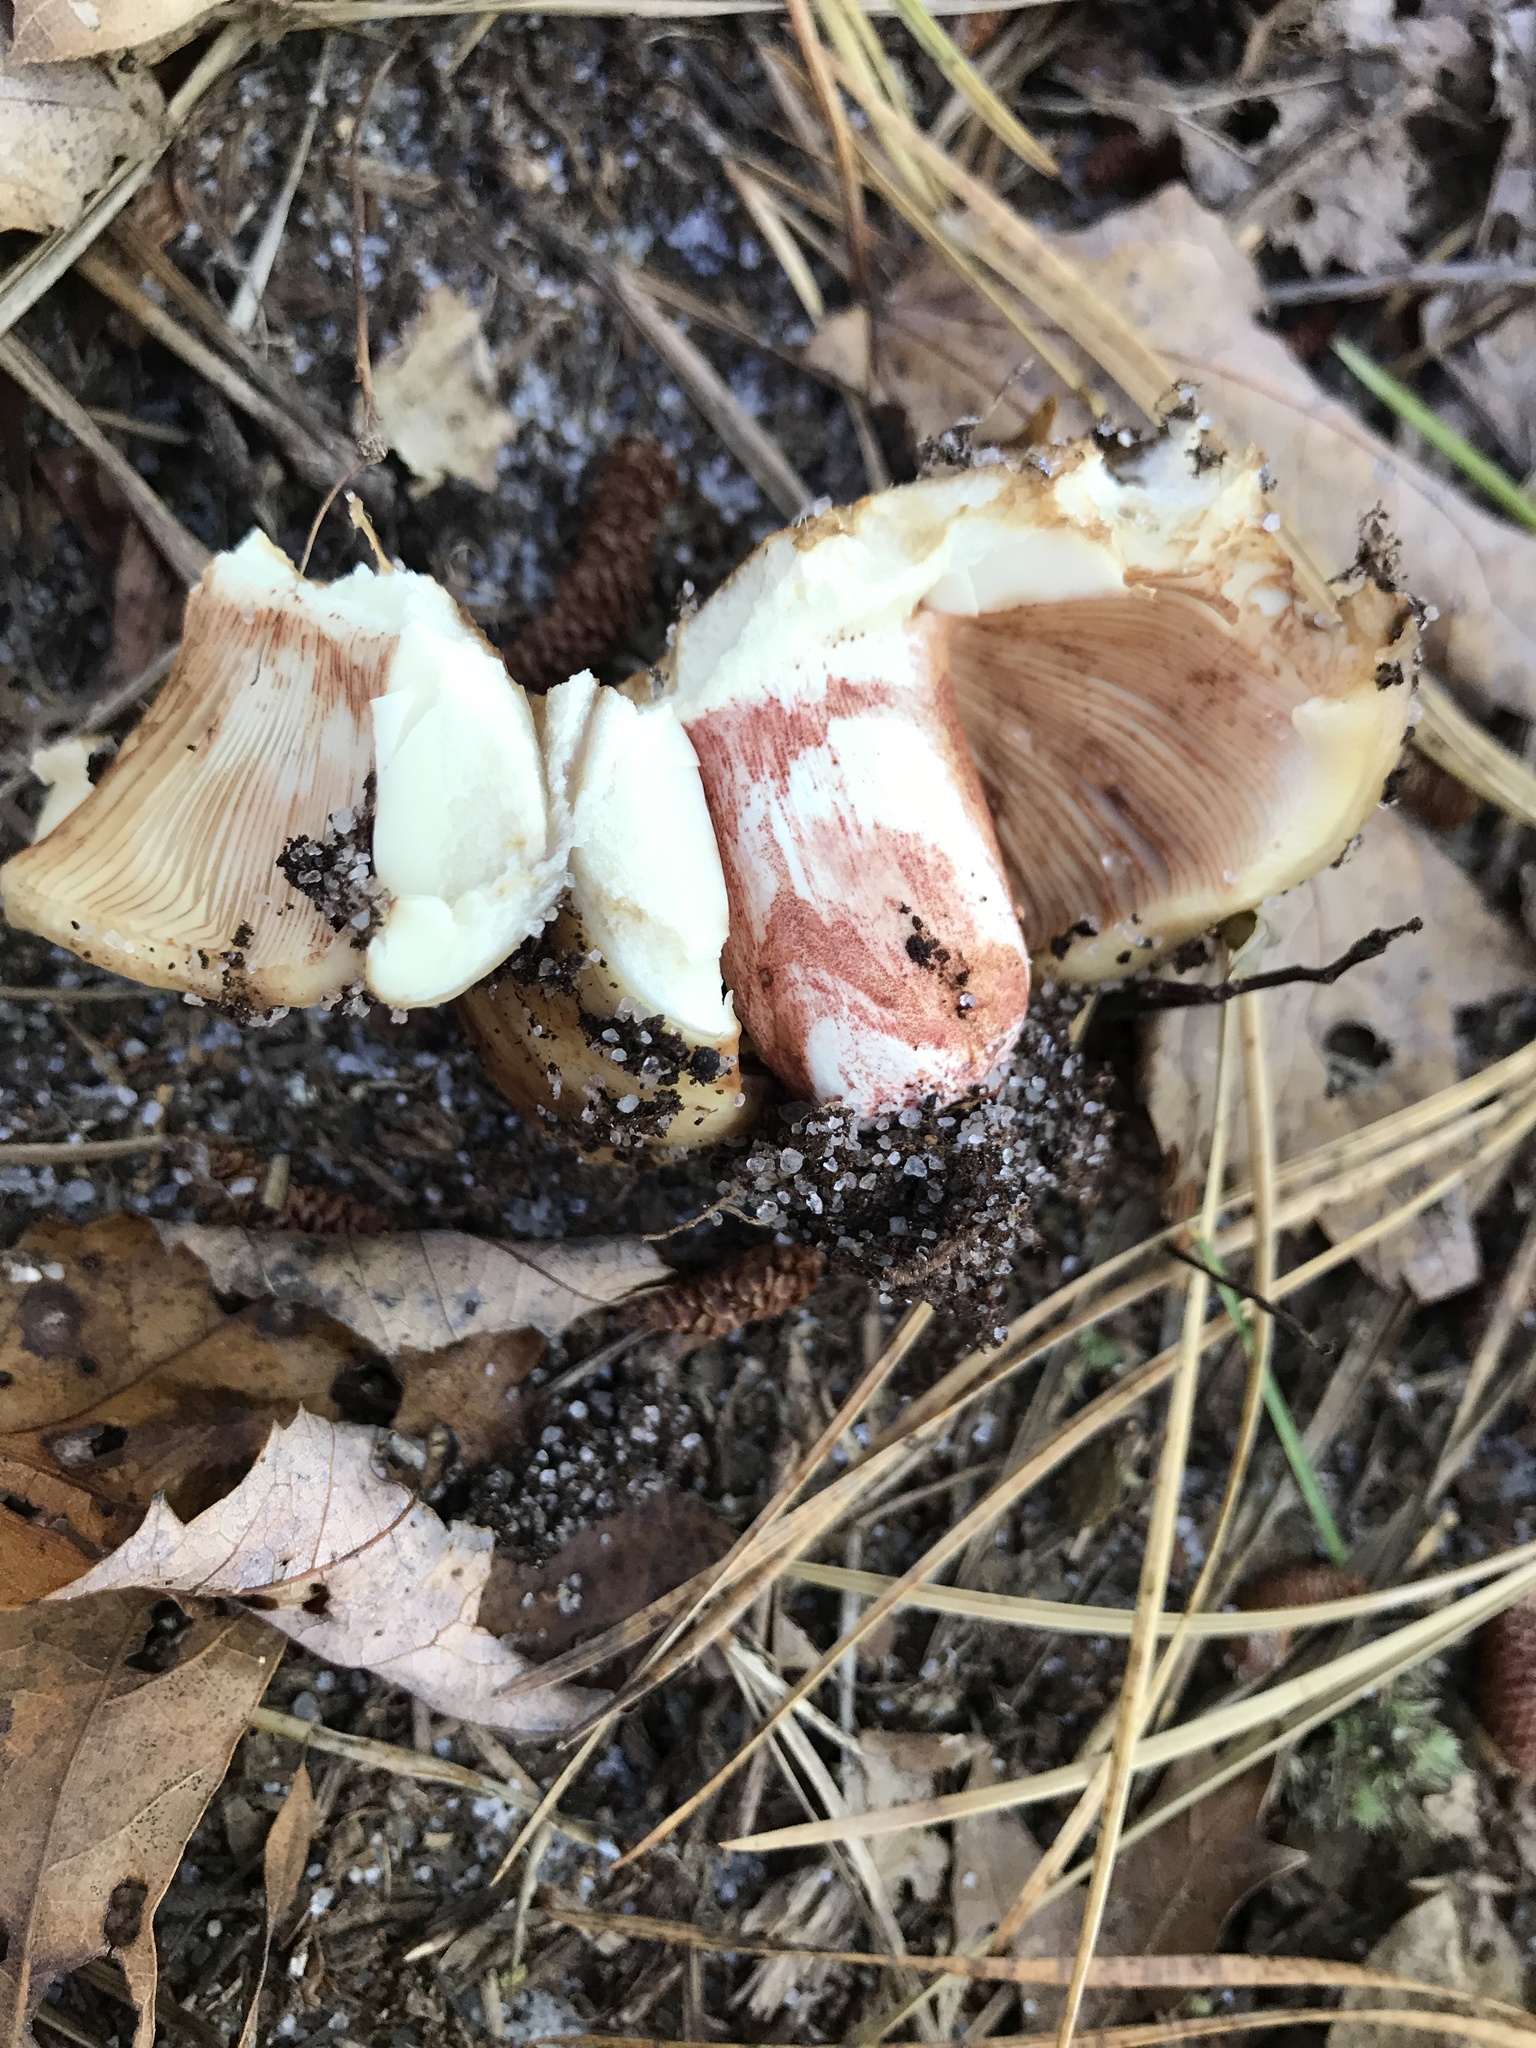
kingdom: Fungi
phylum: Basidiomycota
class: Agaricomycetes
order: Russulales
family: Russulaceae
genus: Russula
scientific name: Russula ventricosipes
